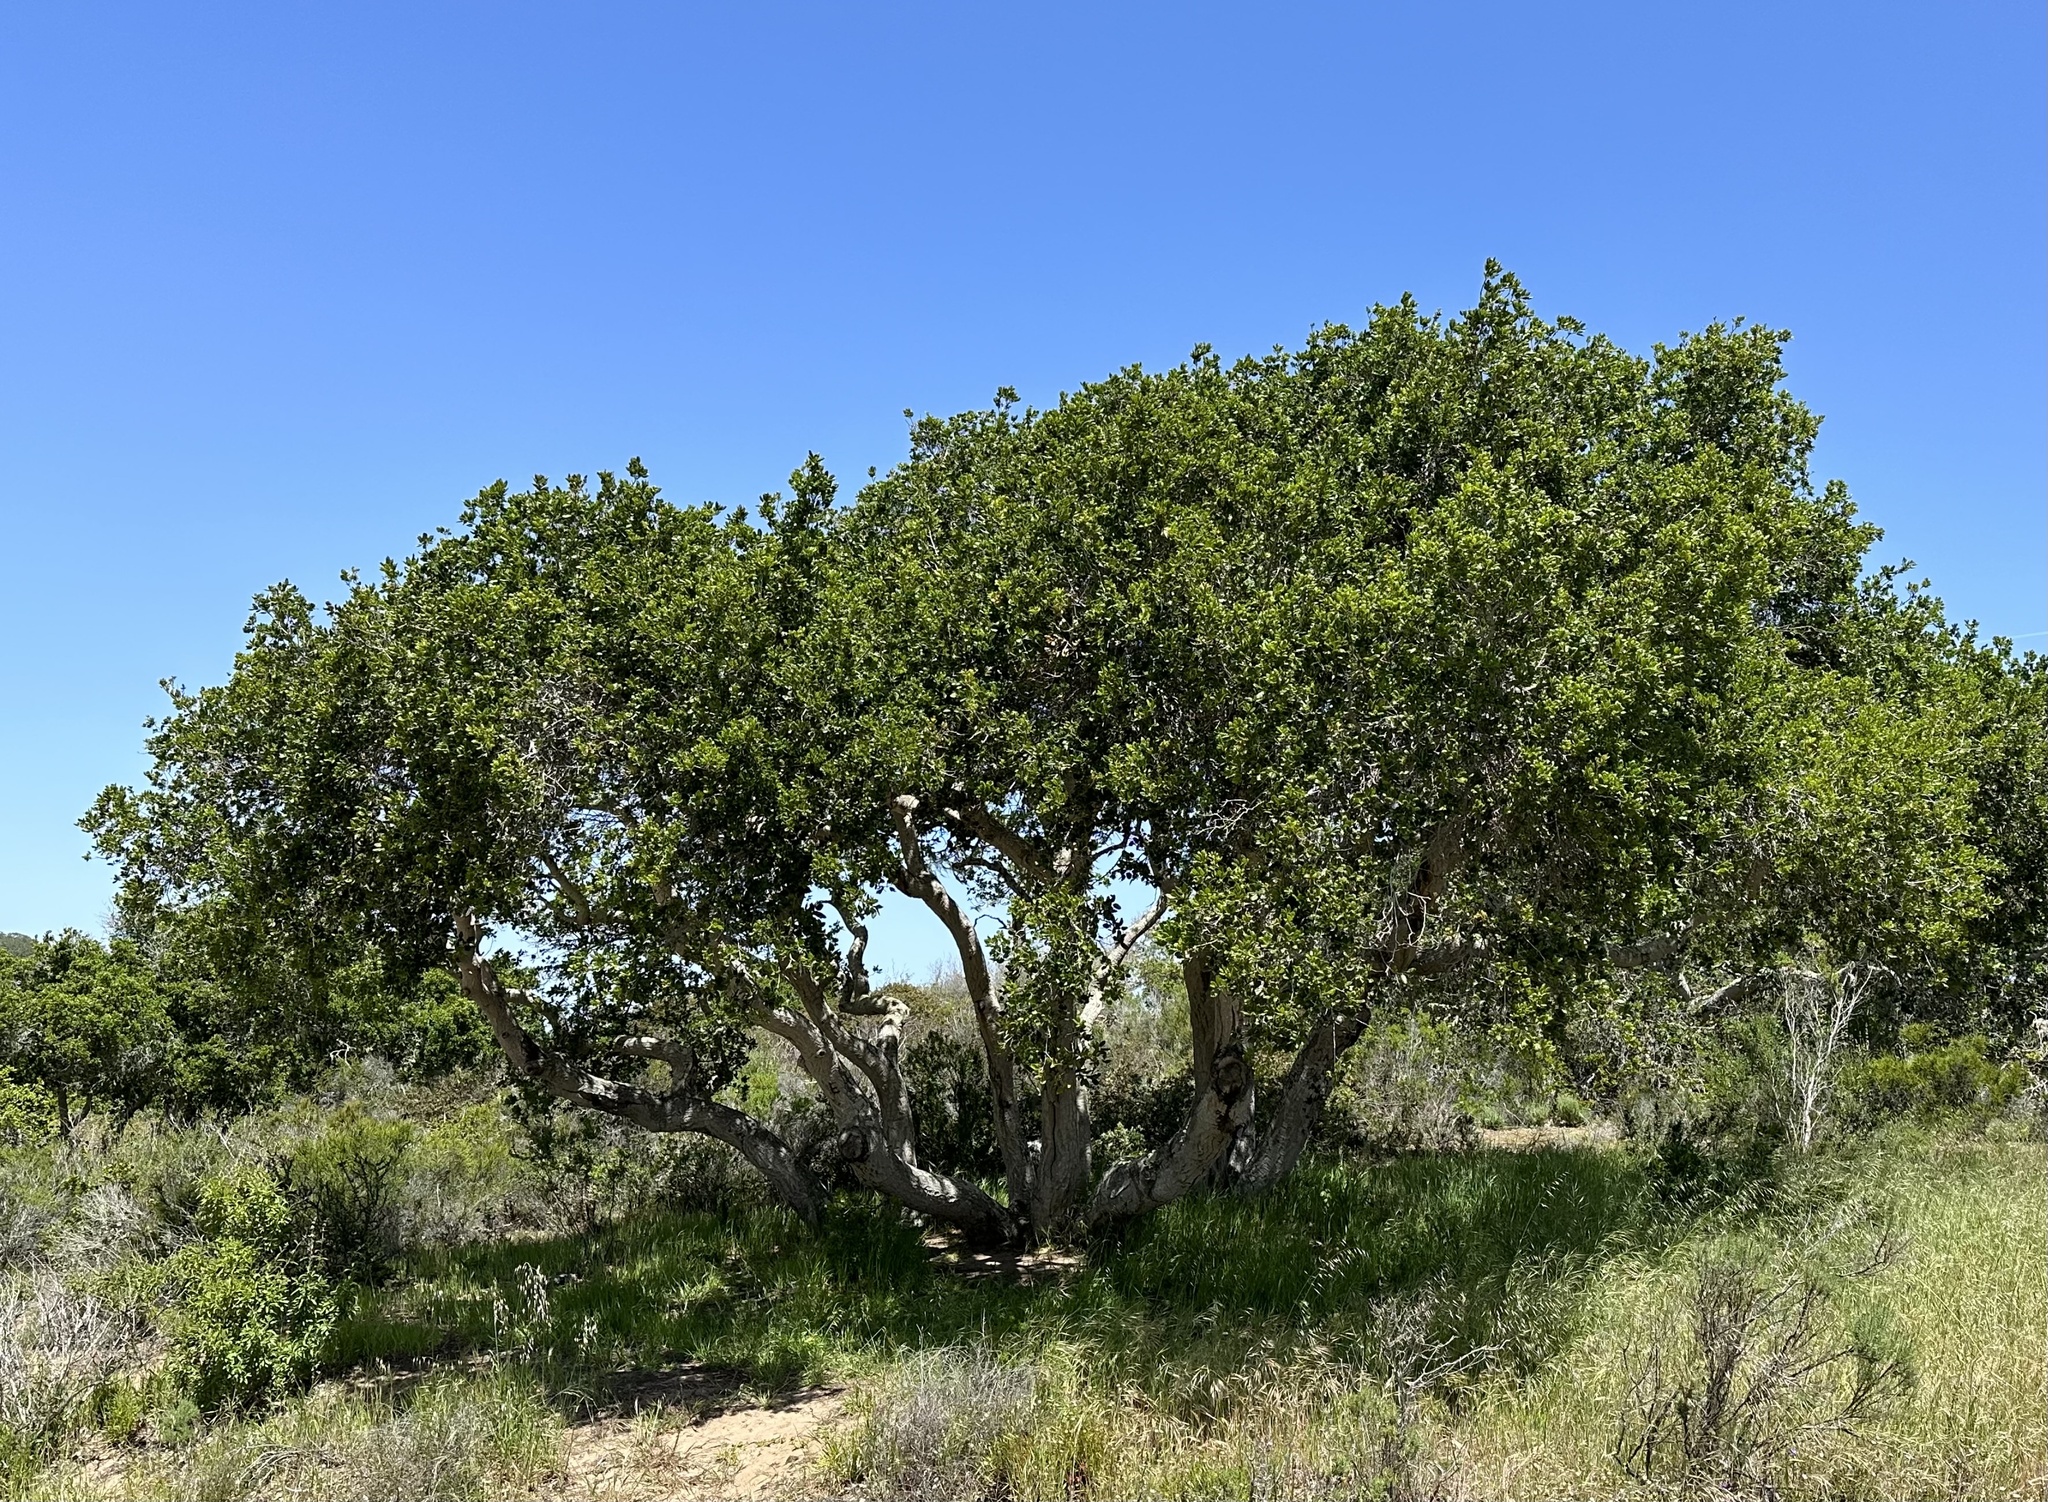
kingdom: Plantae
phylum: Tracheophyta
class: Magnoliopsida
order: Fagales
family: Fagaceae
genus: Quercus
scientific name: Quercus agrifolia
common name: California live oak
